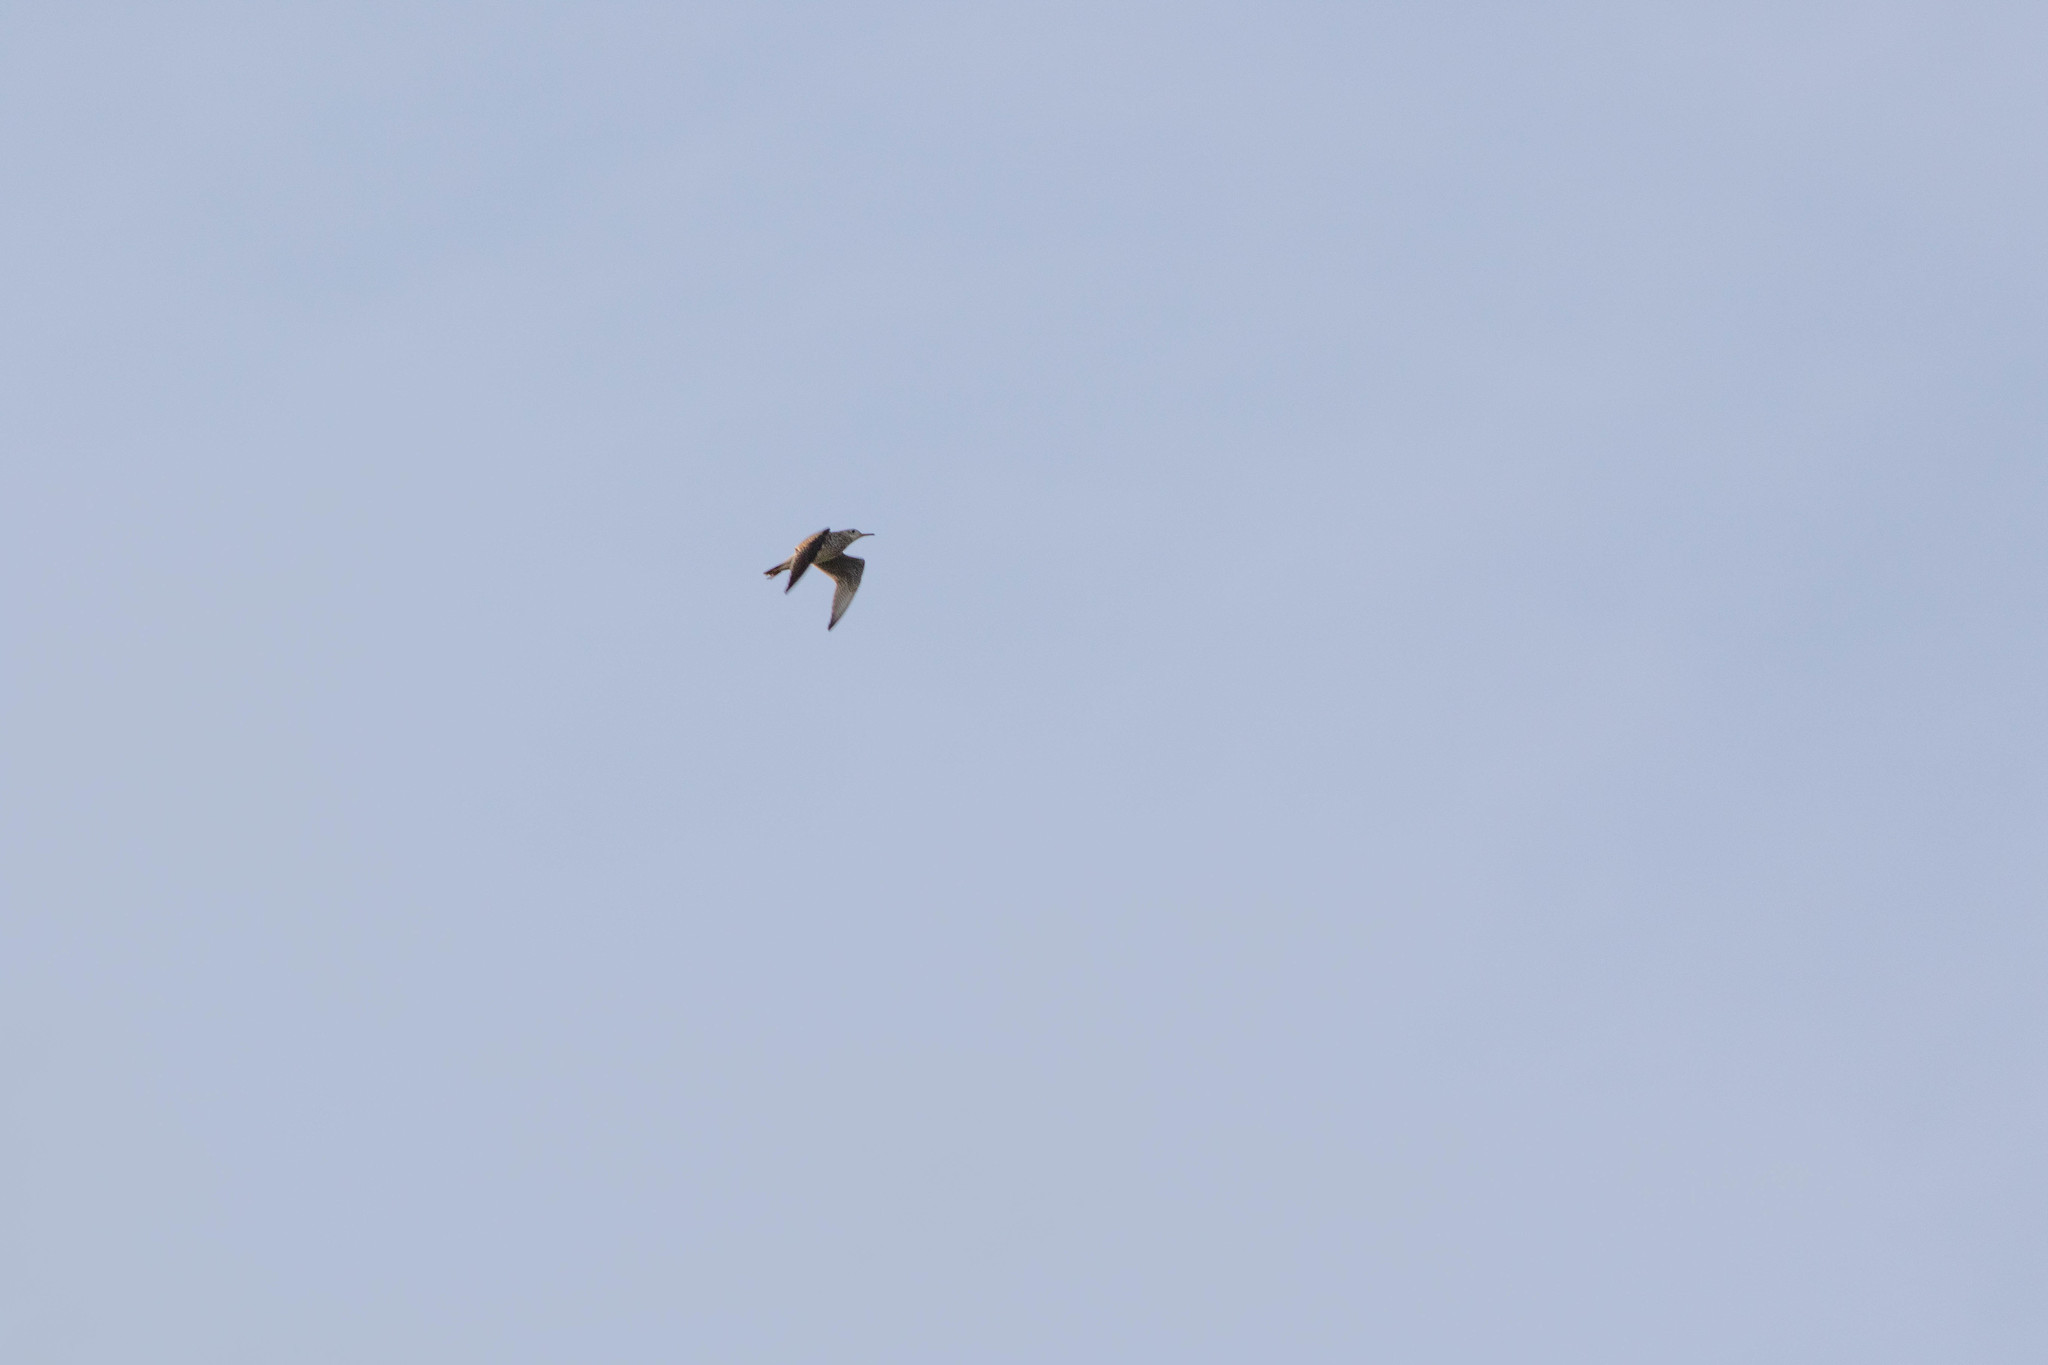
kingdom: Animalia
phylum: Chordata
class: Aves
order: Charadriiformes
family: Scolopacidae
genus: Bartramia
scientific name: Bartramia longicauda
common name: Upland sandpiper
